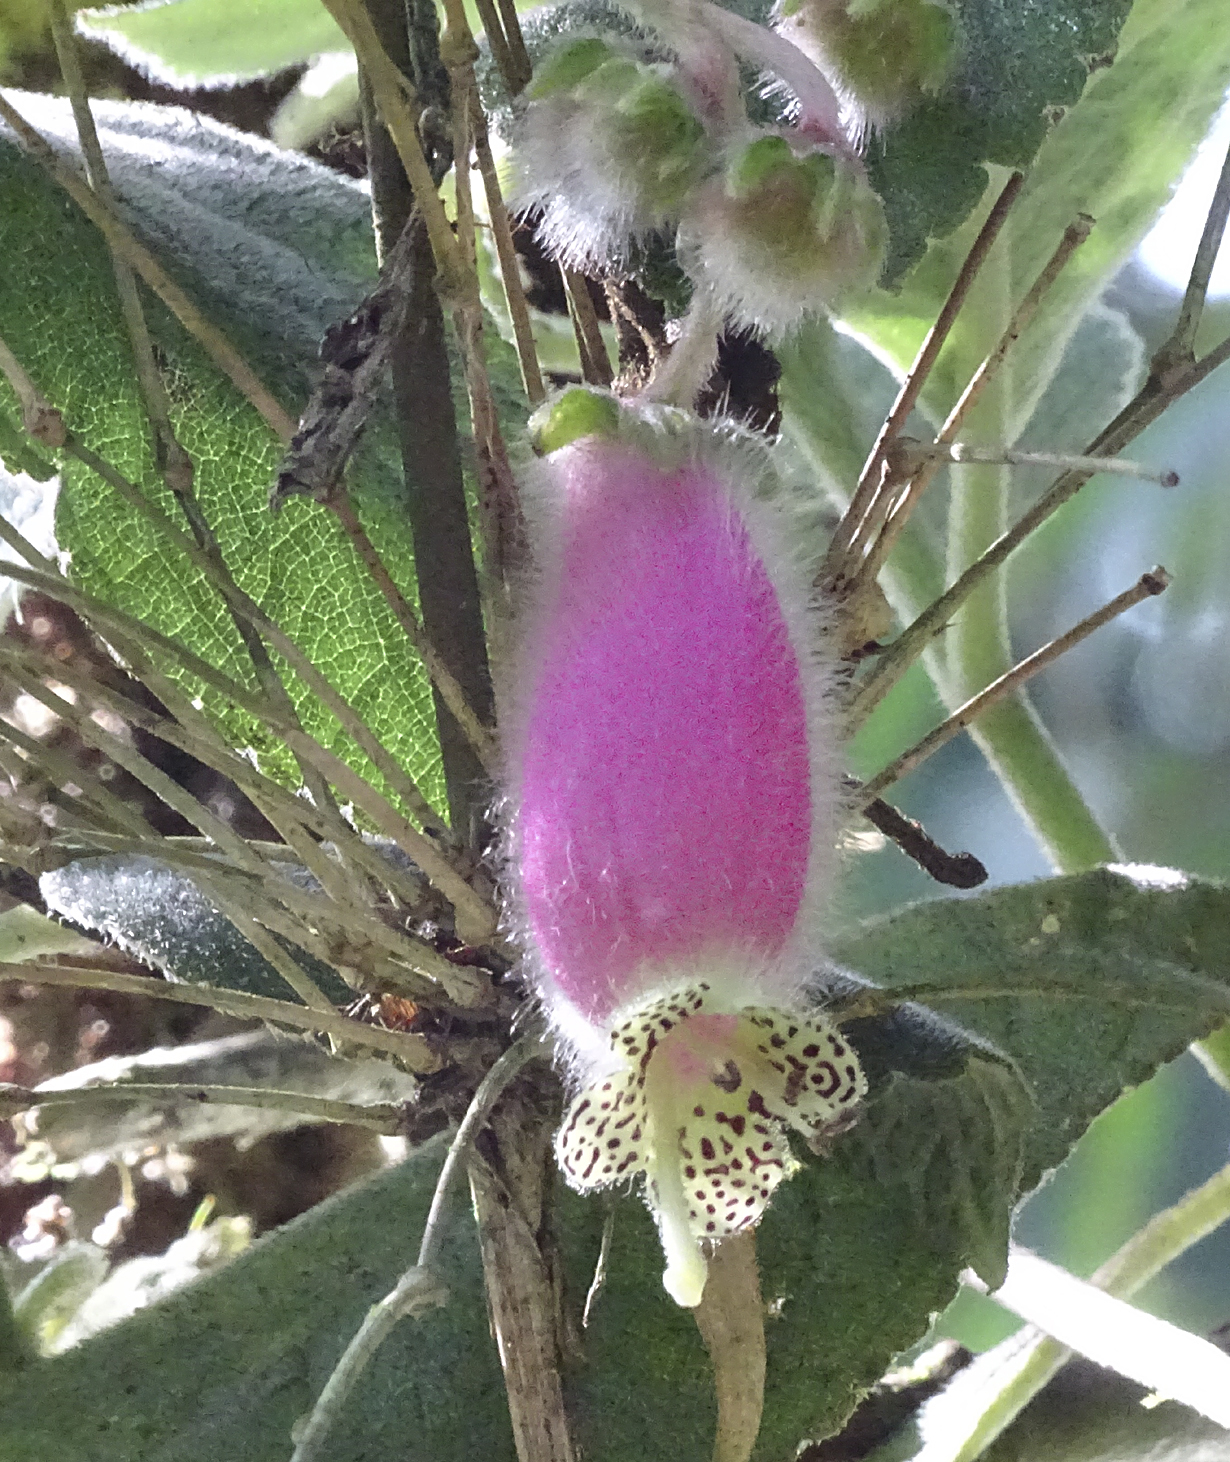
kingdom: Plantae
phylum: Tracheophyta
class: Magnoliopsida
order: Lamiales
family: Gesneriaceae
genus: Kohleria
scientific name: Kohleria affinis
